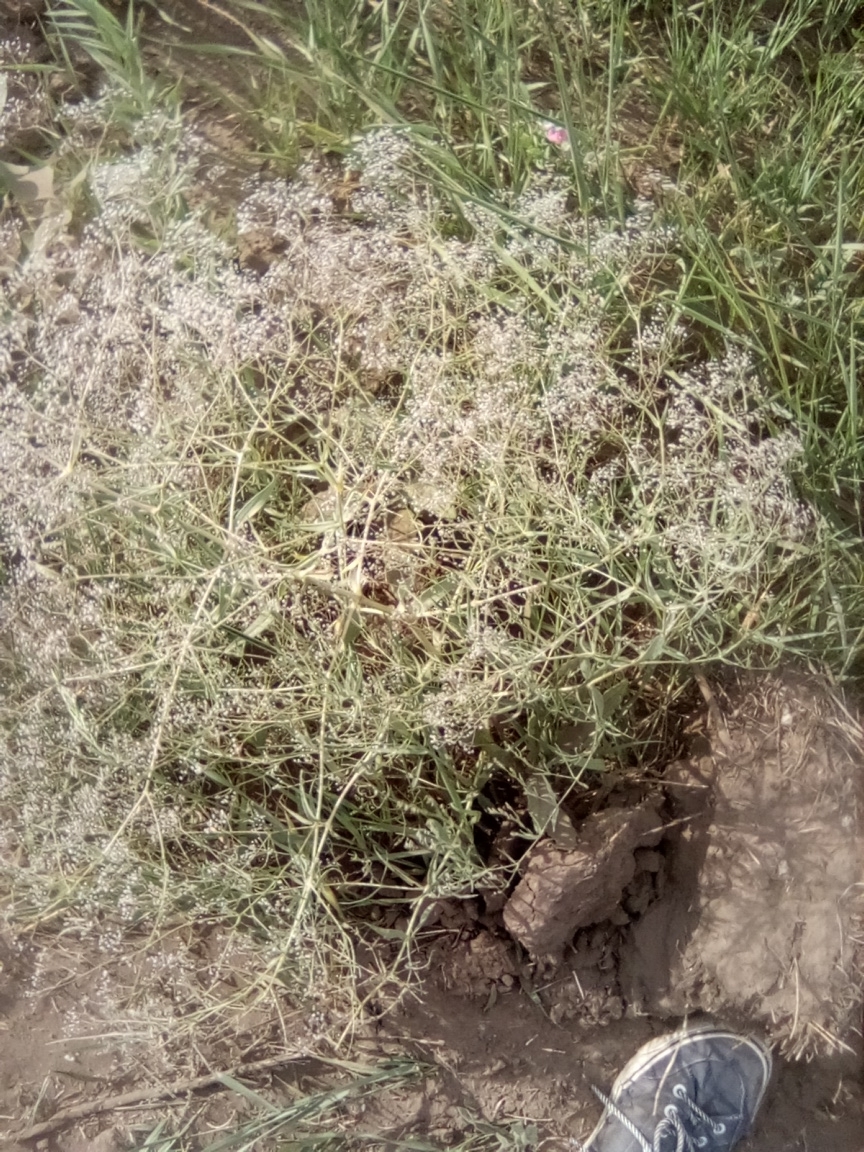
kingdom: Plantae
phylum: Tracheophyta
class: Magnoliopsida
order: Caryophyllales
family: Caryophyllaceae
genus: Gypsophila
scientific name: Gypsophila paniculata
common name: Baby's-breath
